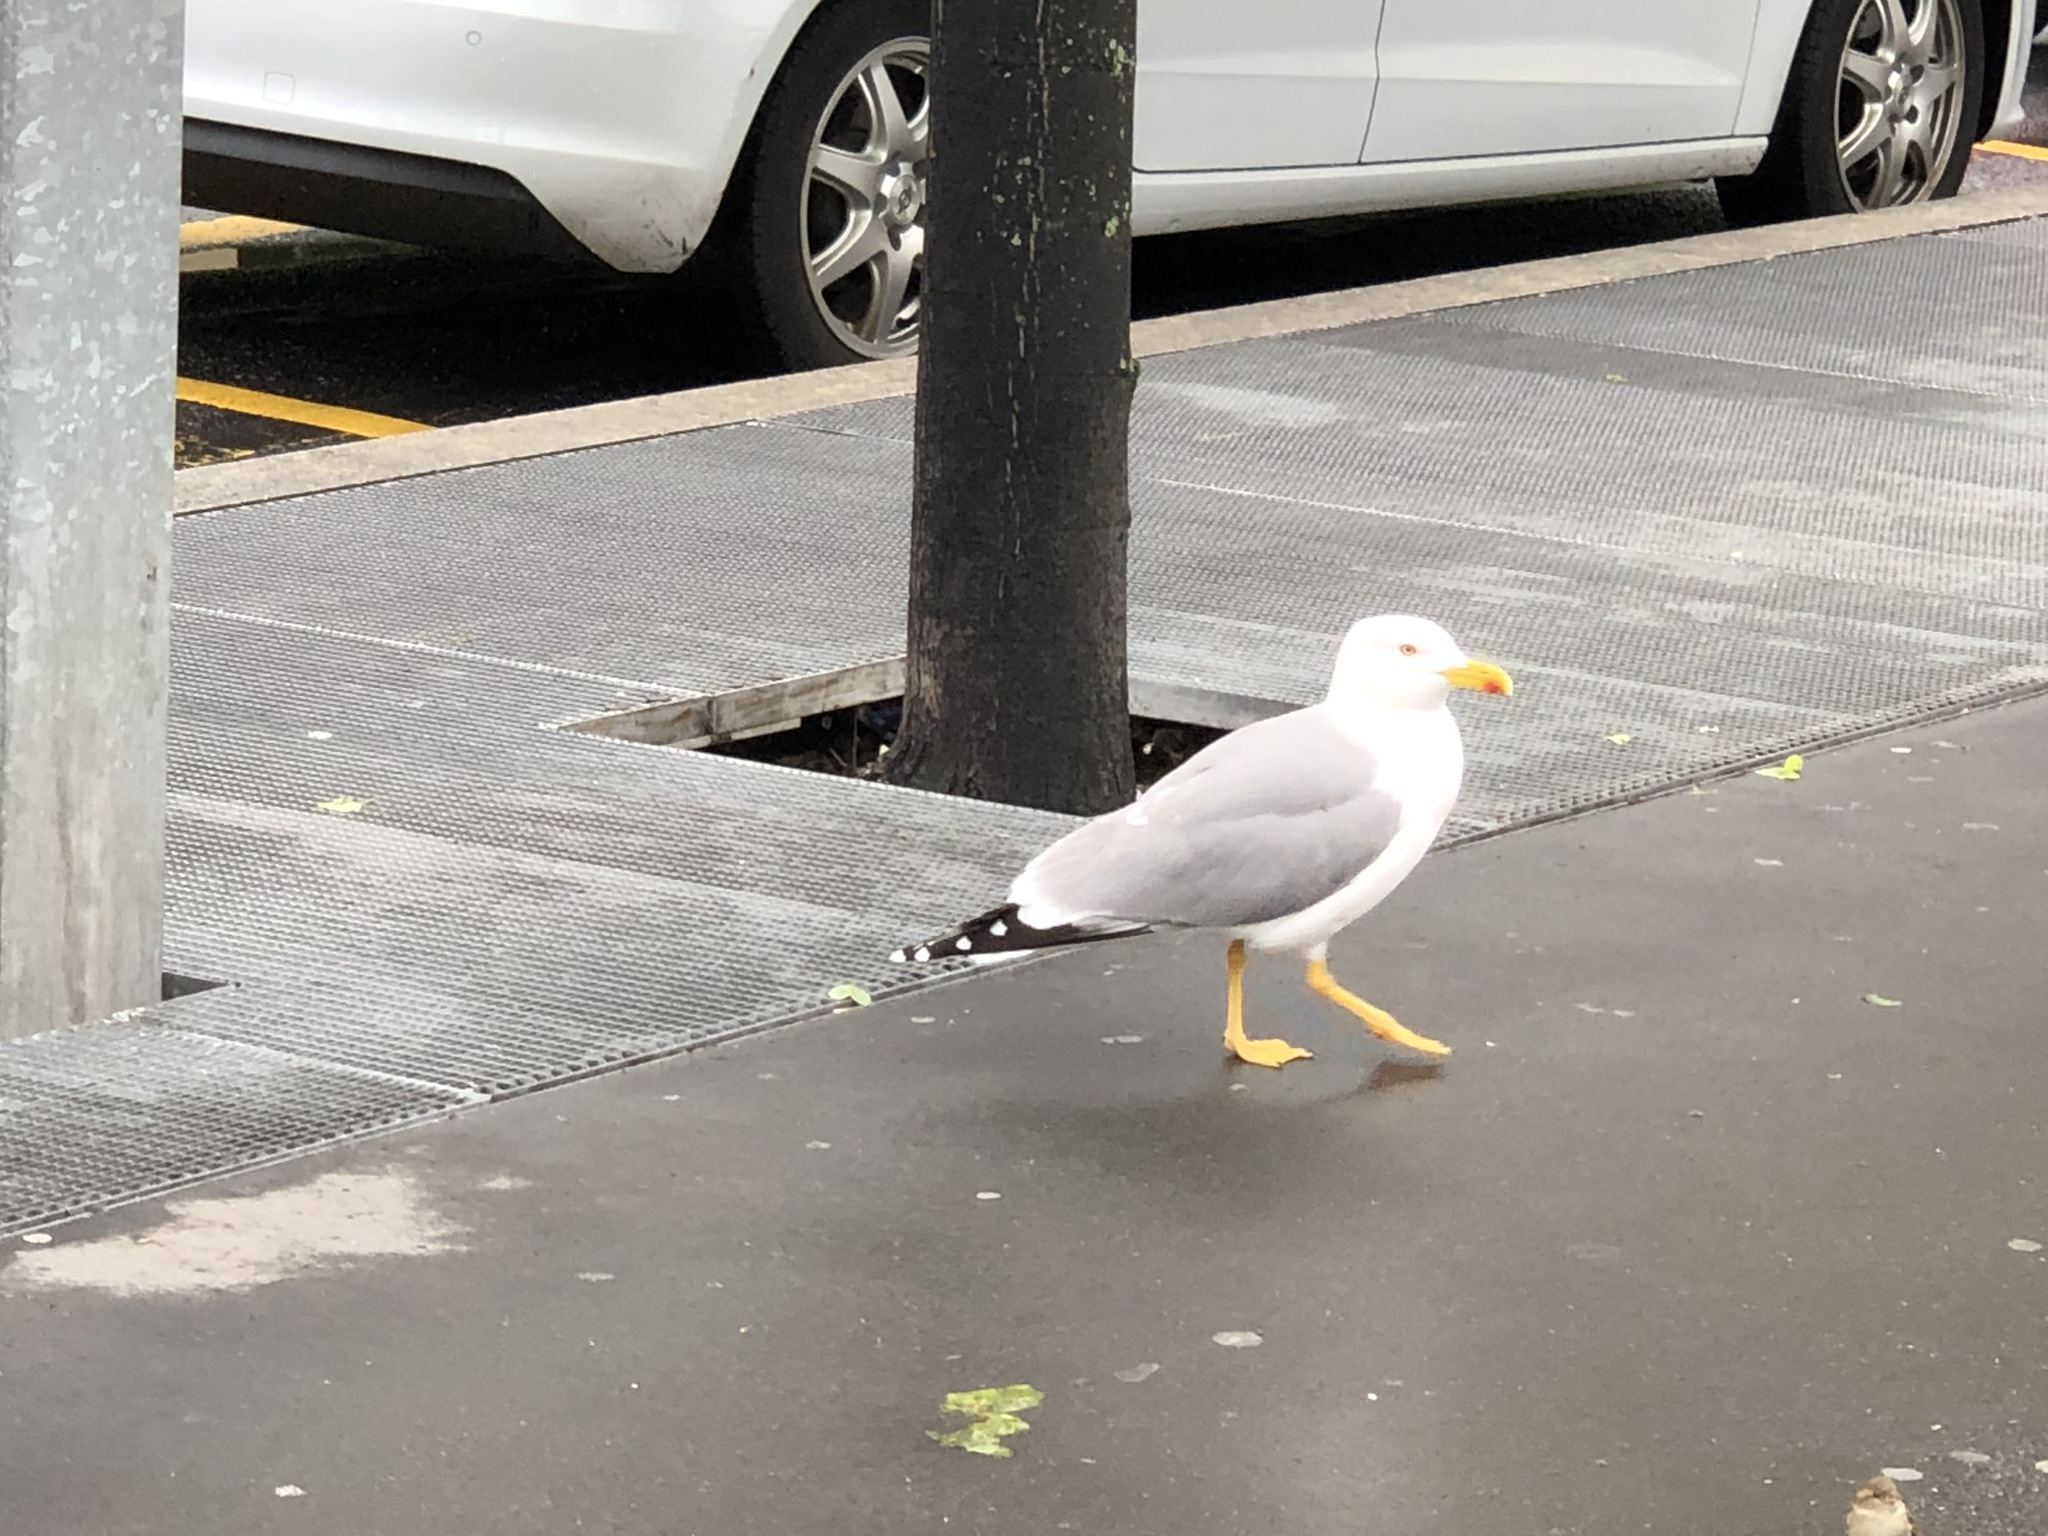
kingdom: Animalia
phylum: Chordata
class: Aves
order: Charadriiformes
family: Laridae
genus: Larus
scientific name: Larus michahellis
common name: Yellow-legged gull
